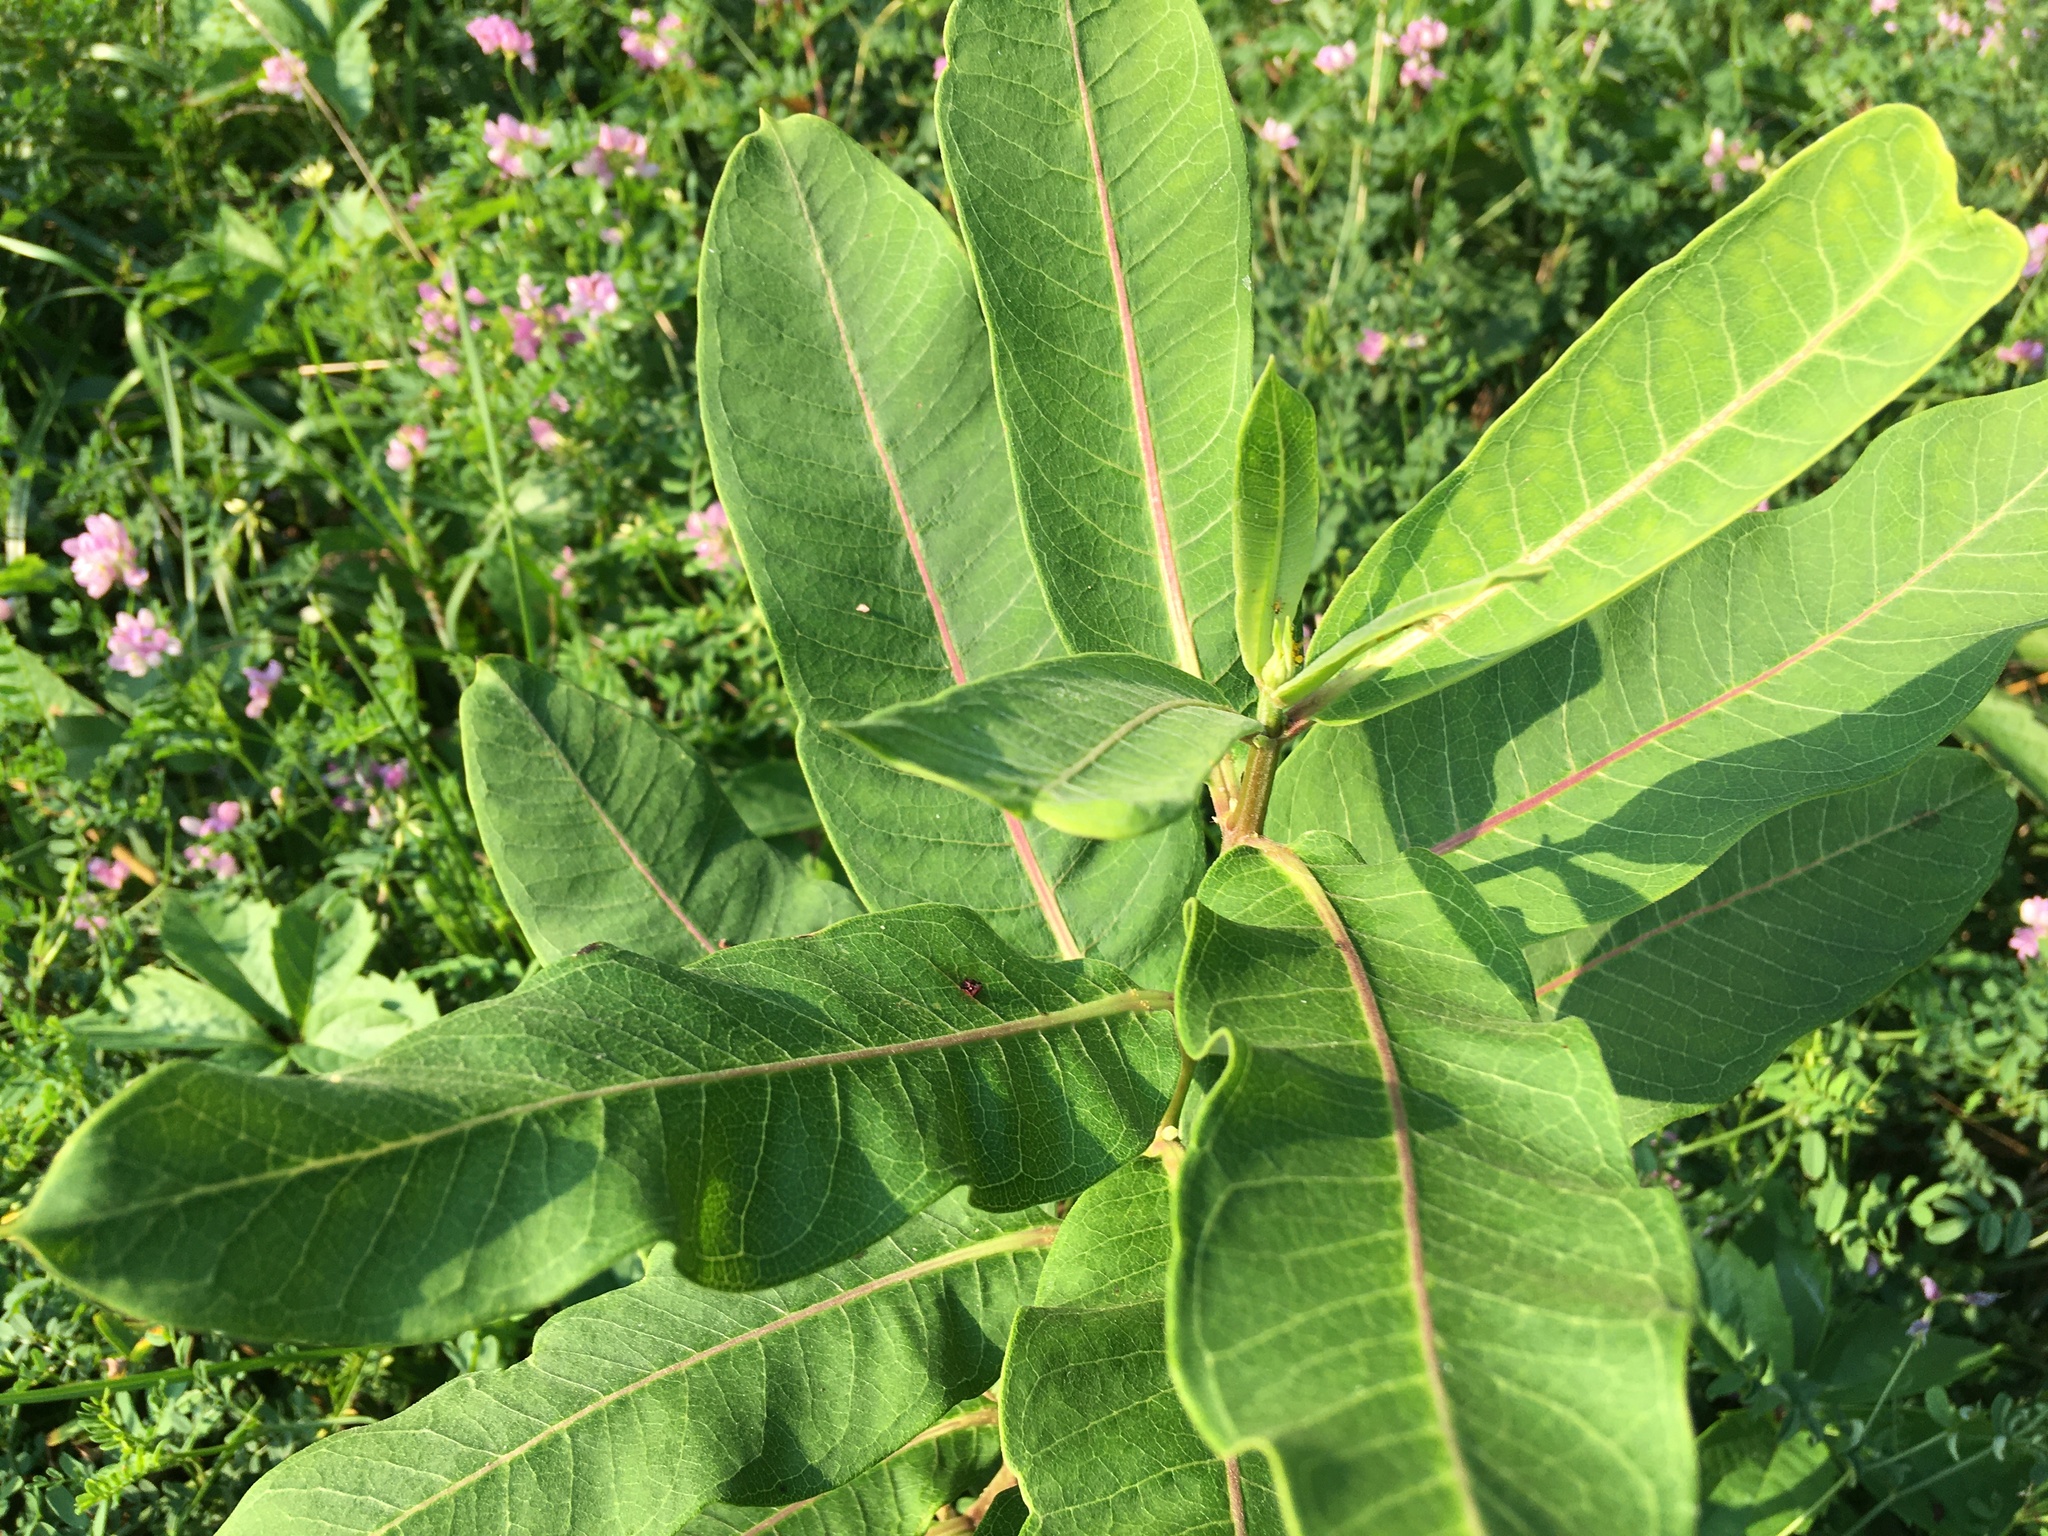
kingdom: Plantae
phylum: Tracheophyta
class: Magnoliopsida
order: Gentianales
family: Apocynaceae
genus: Asclepias
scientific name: Asclepias syriaca
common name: Common milkweed
